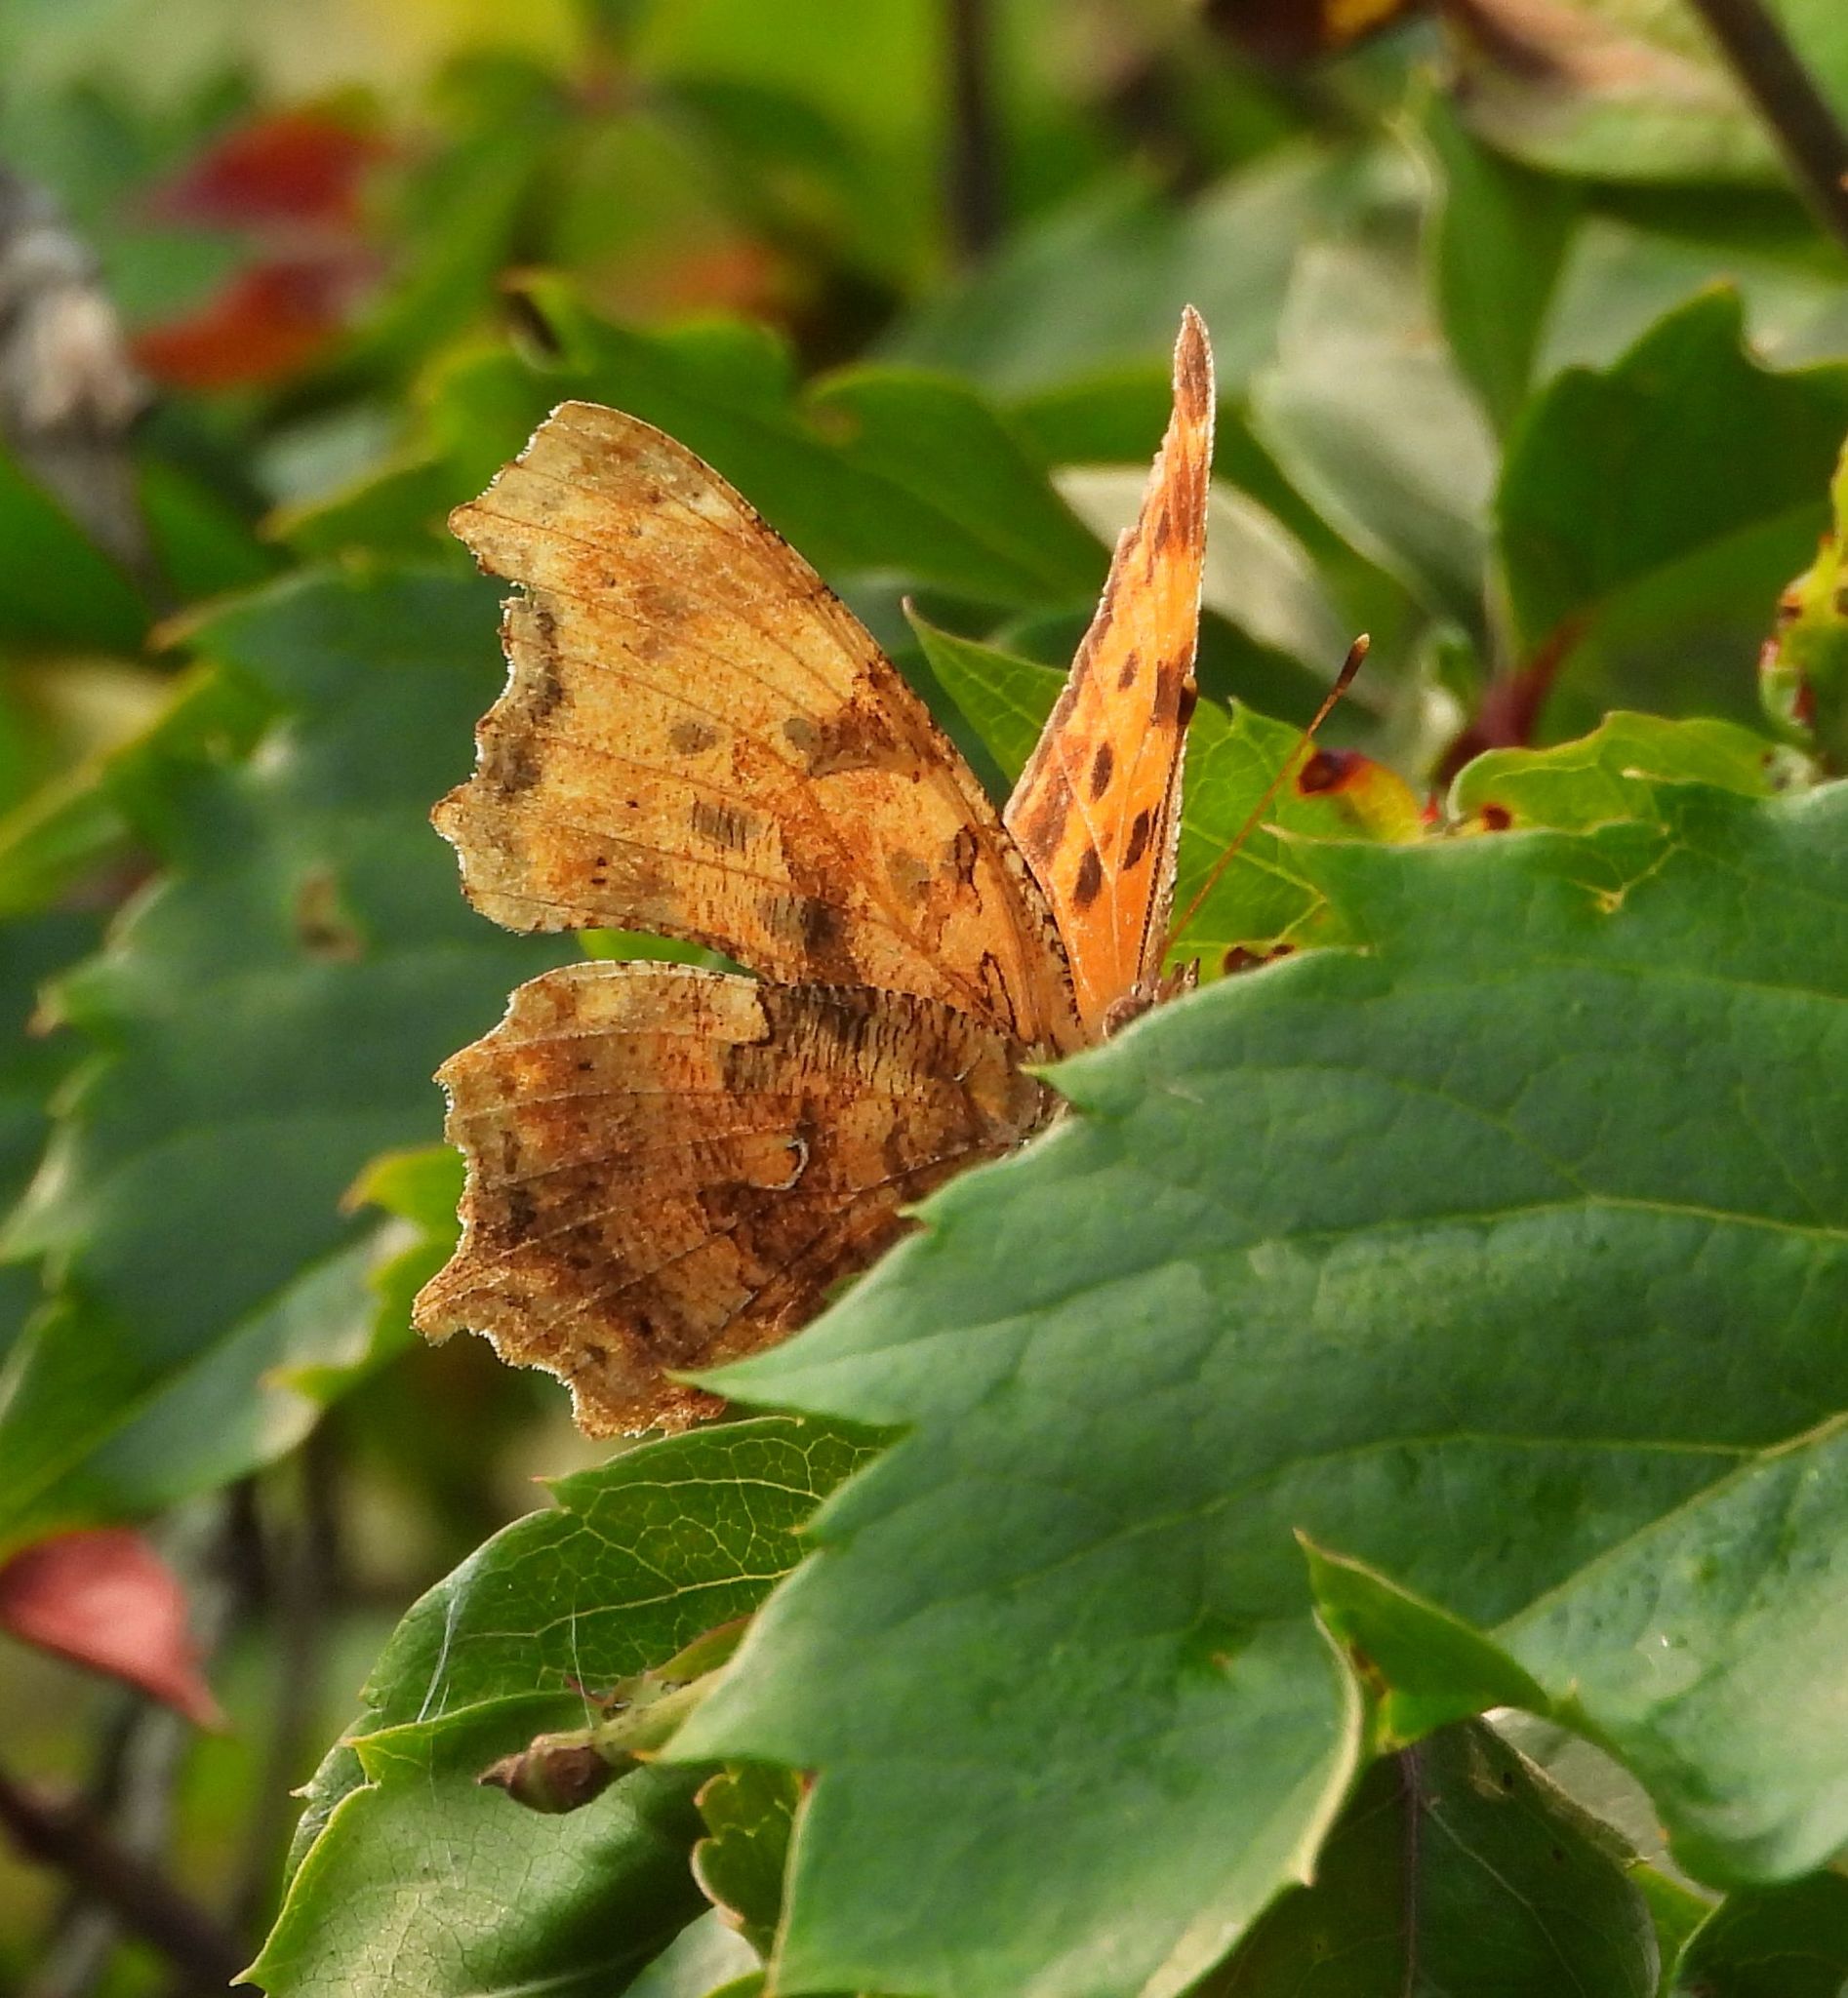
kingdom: Animalia
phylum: Arthropoda
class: Insecta
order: Lepidoptera
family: Nymphalidae
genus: Polygonia
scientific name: Polygonia comma
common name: Eastern comma
